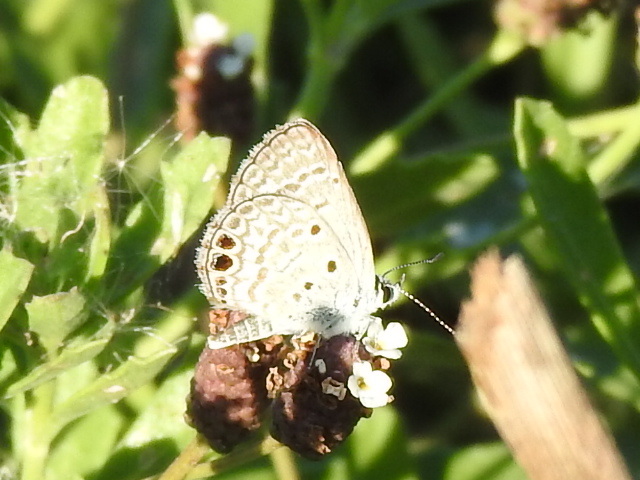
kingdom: Animalia
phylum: Arthropoda
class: Insecta
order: Lepidoptera
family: Lycaenidae
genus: Hemiargus
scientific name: Hemiargus ceraunus
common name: Ceraunus blue
